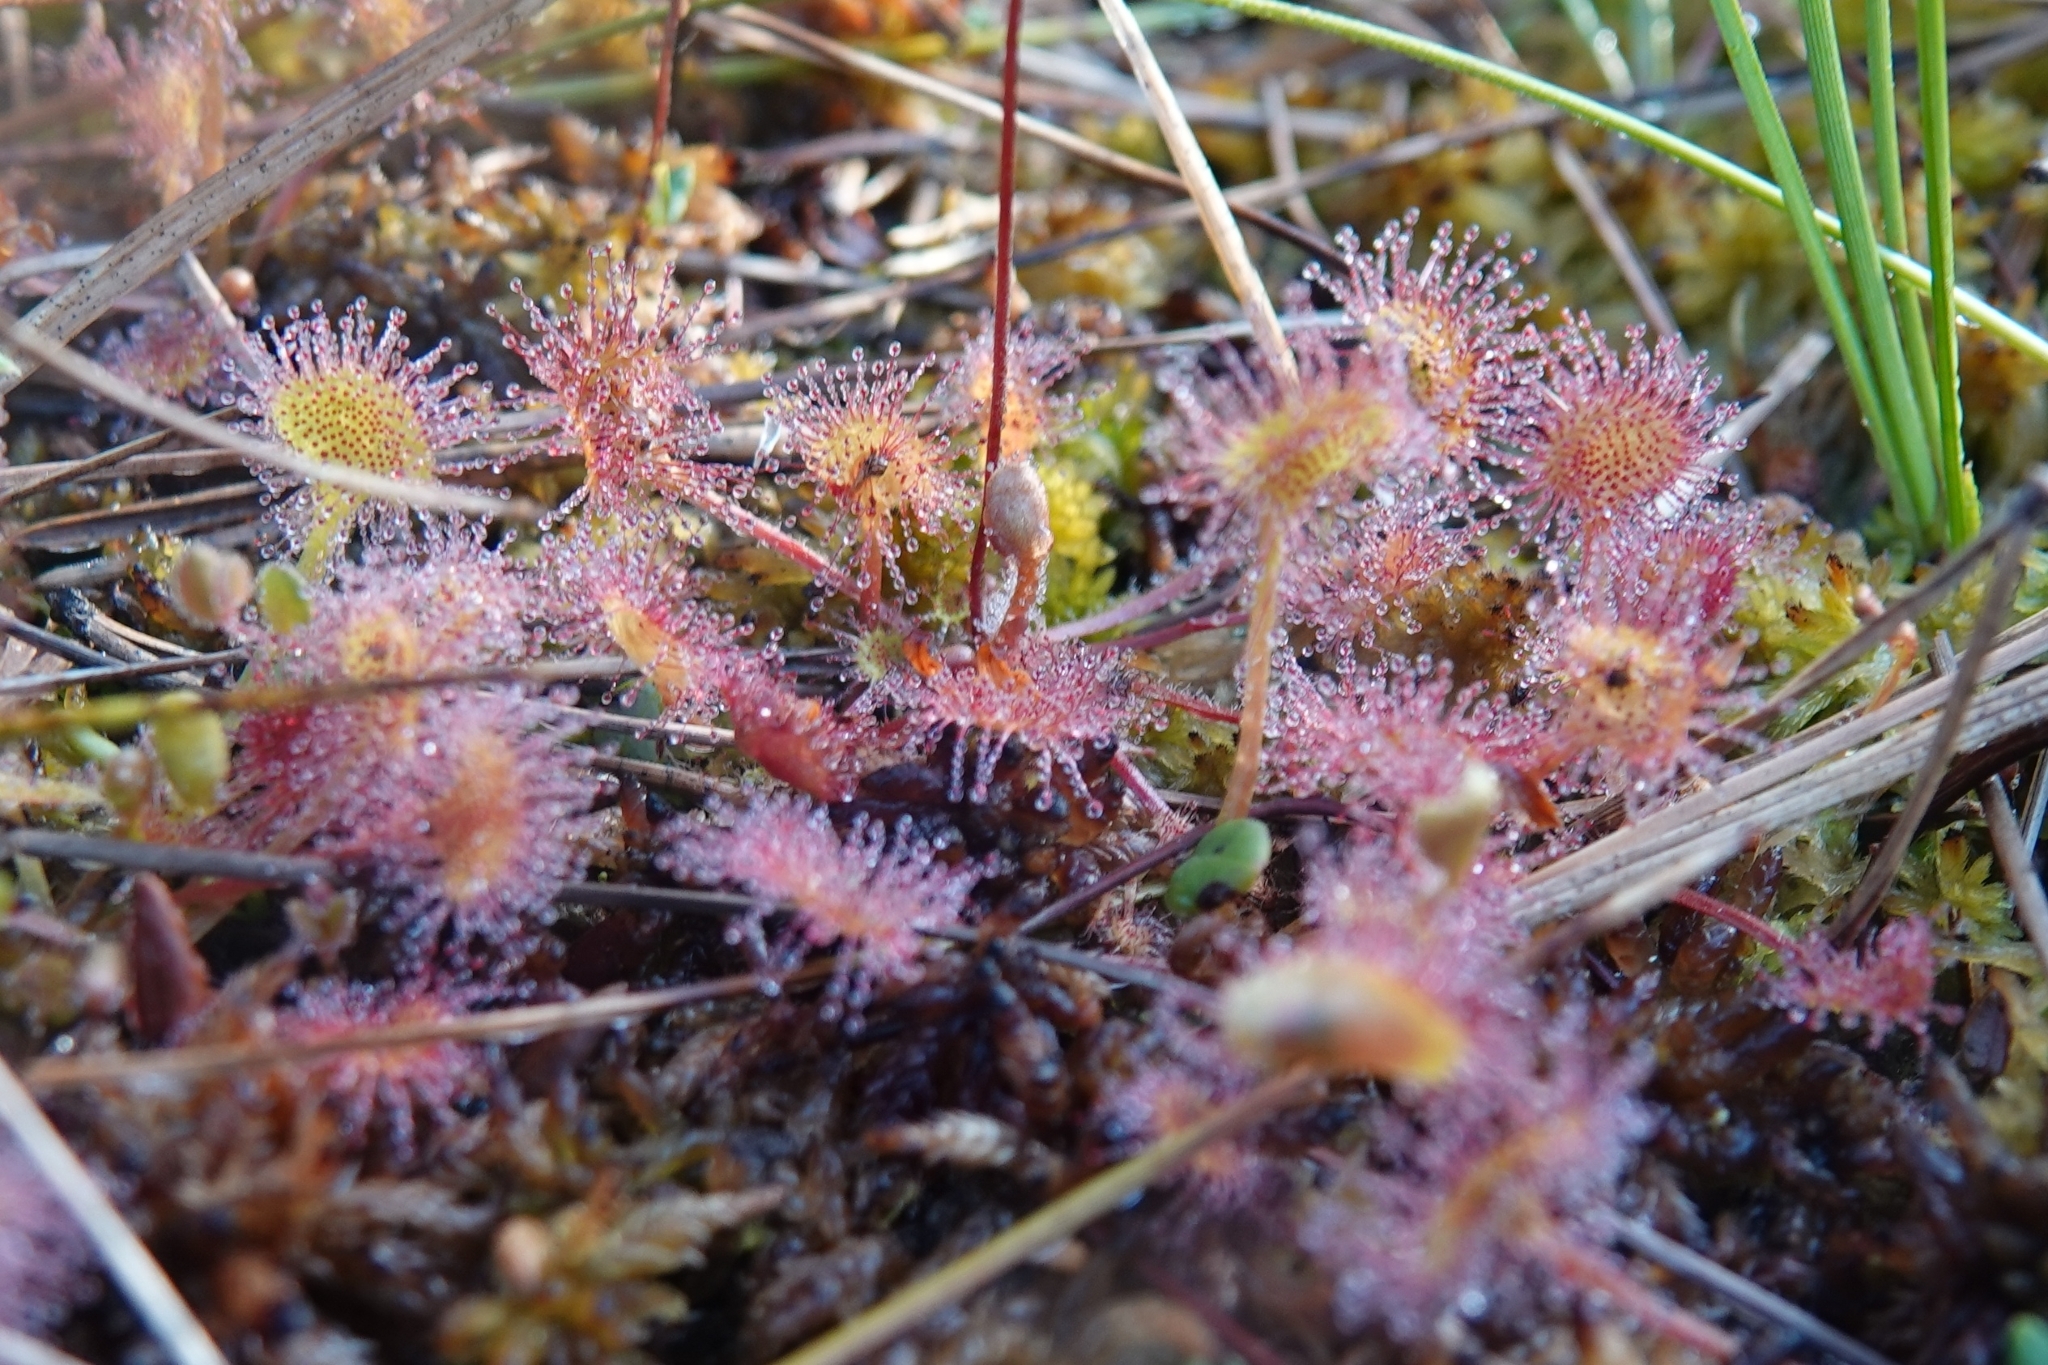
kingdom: Plantae
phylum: Tracheophyta
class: Magnoliopsida
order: Caryophyllales
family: Droseraceae
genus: Drosera
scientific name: Drosera rotundifolia
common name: Round-leaved sundew
